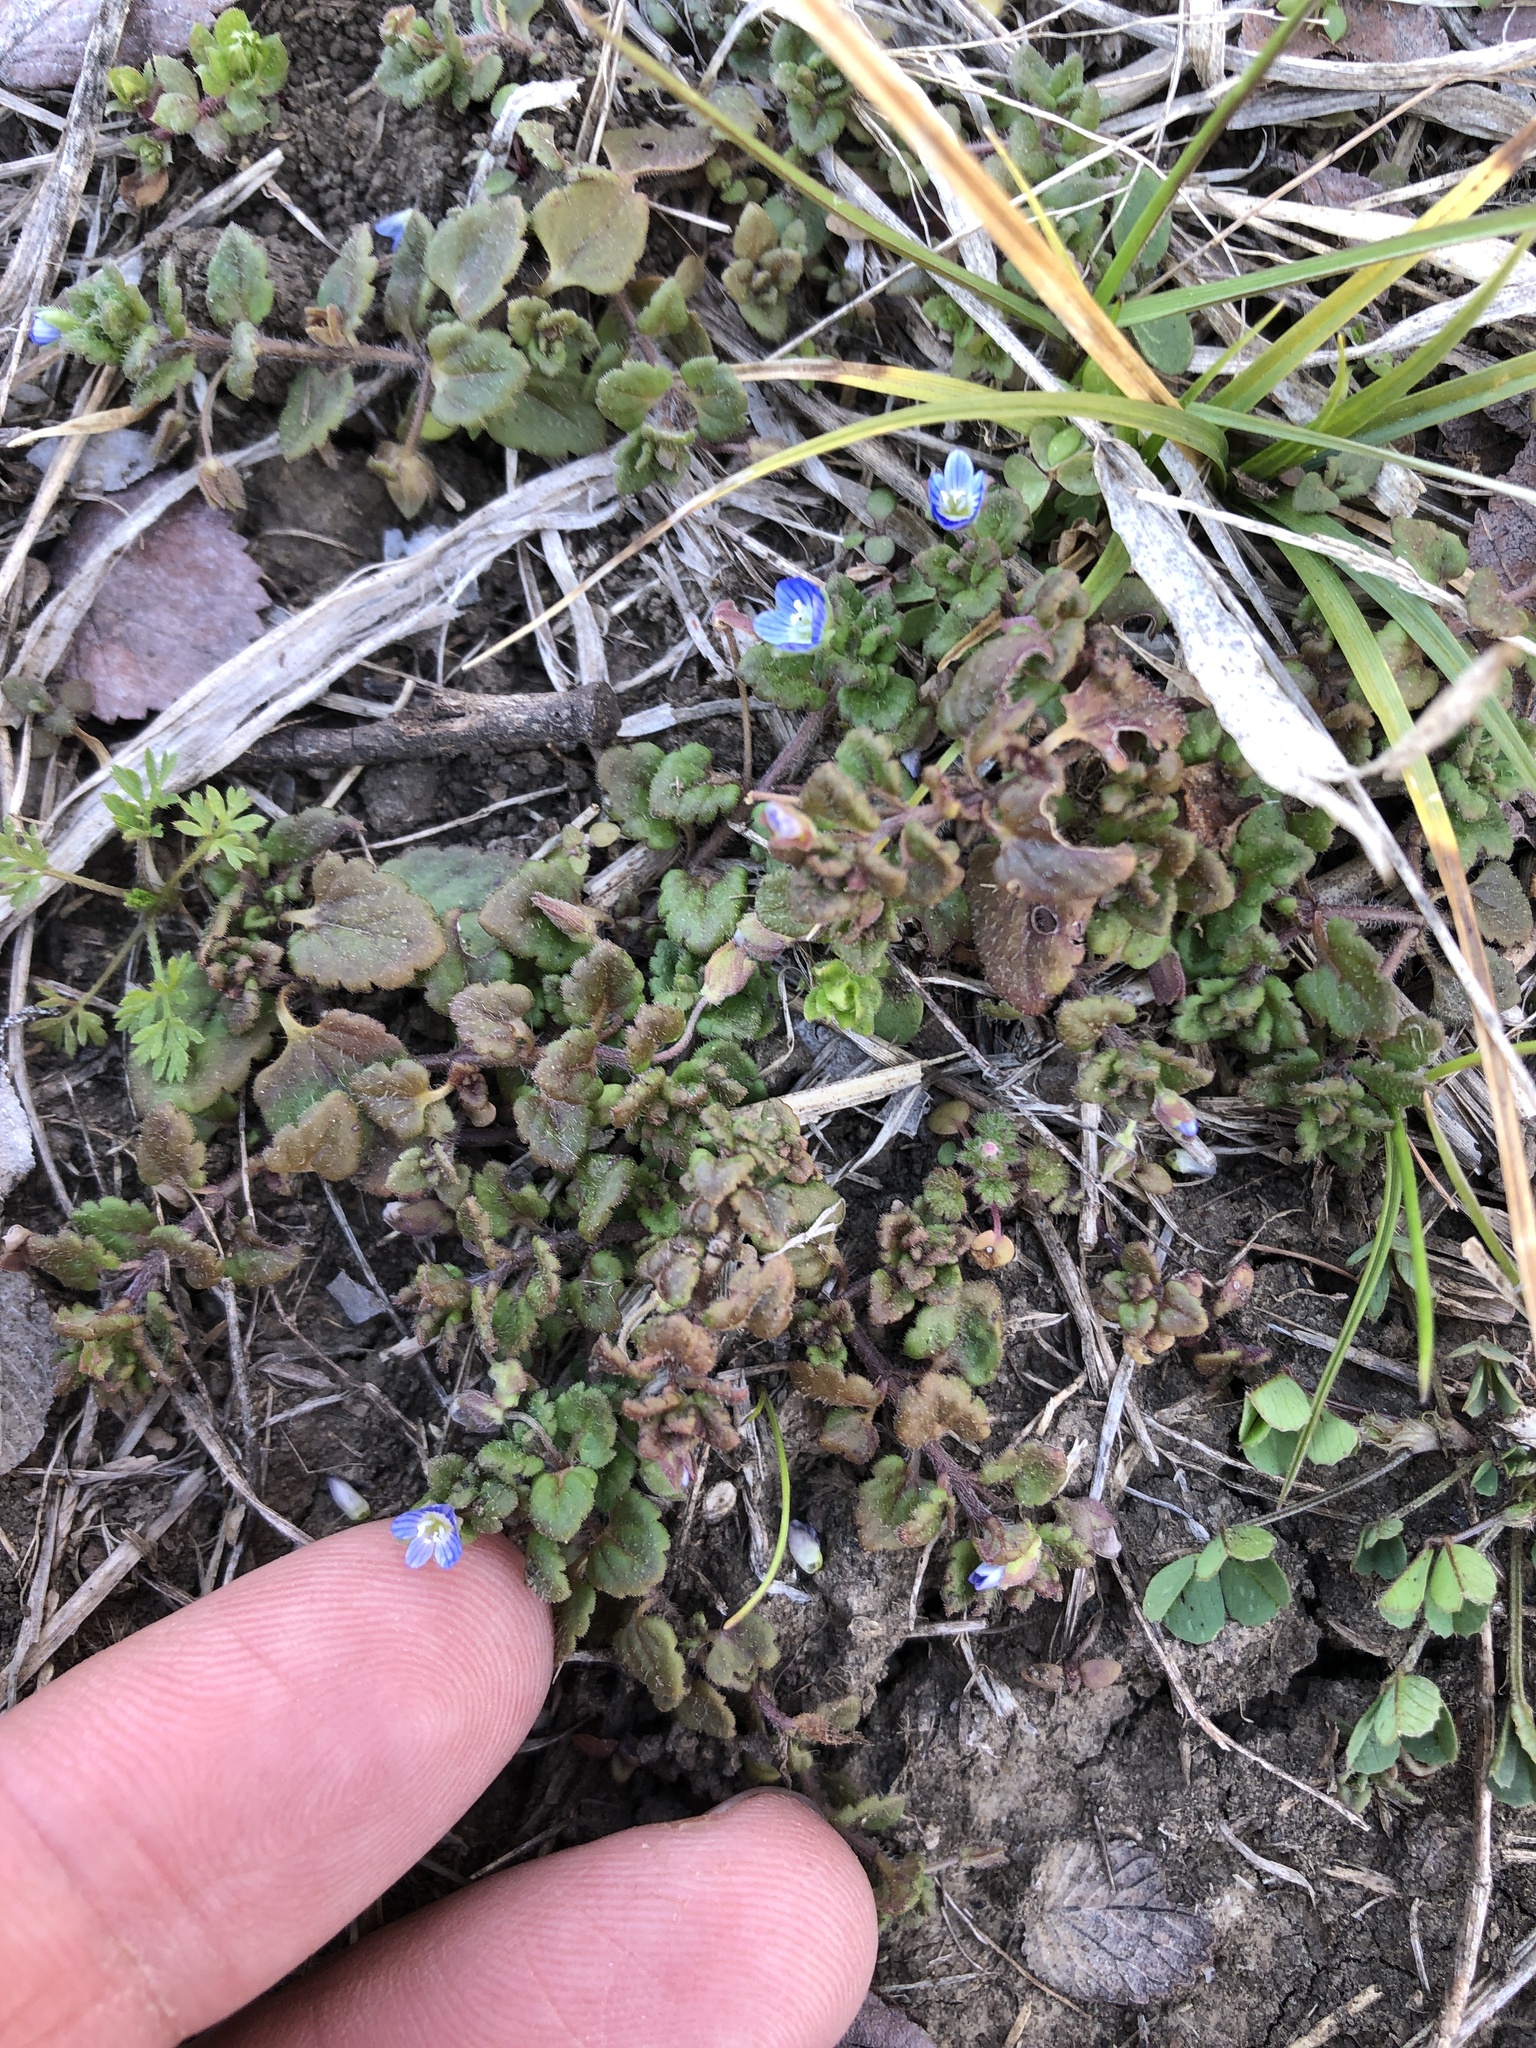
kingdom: Plantae
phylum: Tracheophyta
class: Magnoliopsida
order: Lamiales
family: Plantaginaceae
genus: Veronica
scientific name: Veronica polita
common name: Grey field-speedwell
